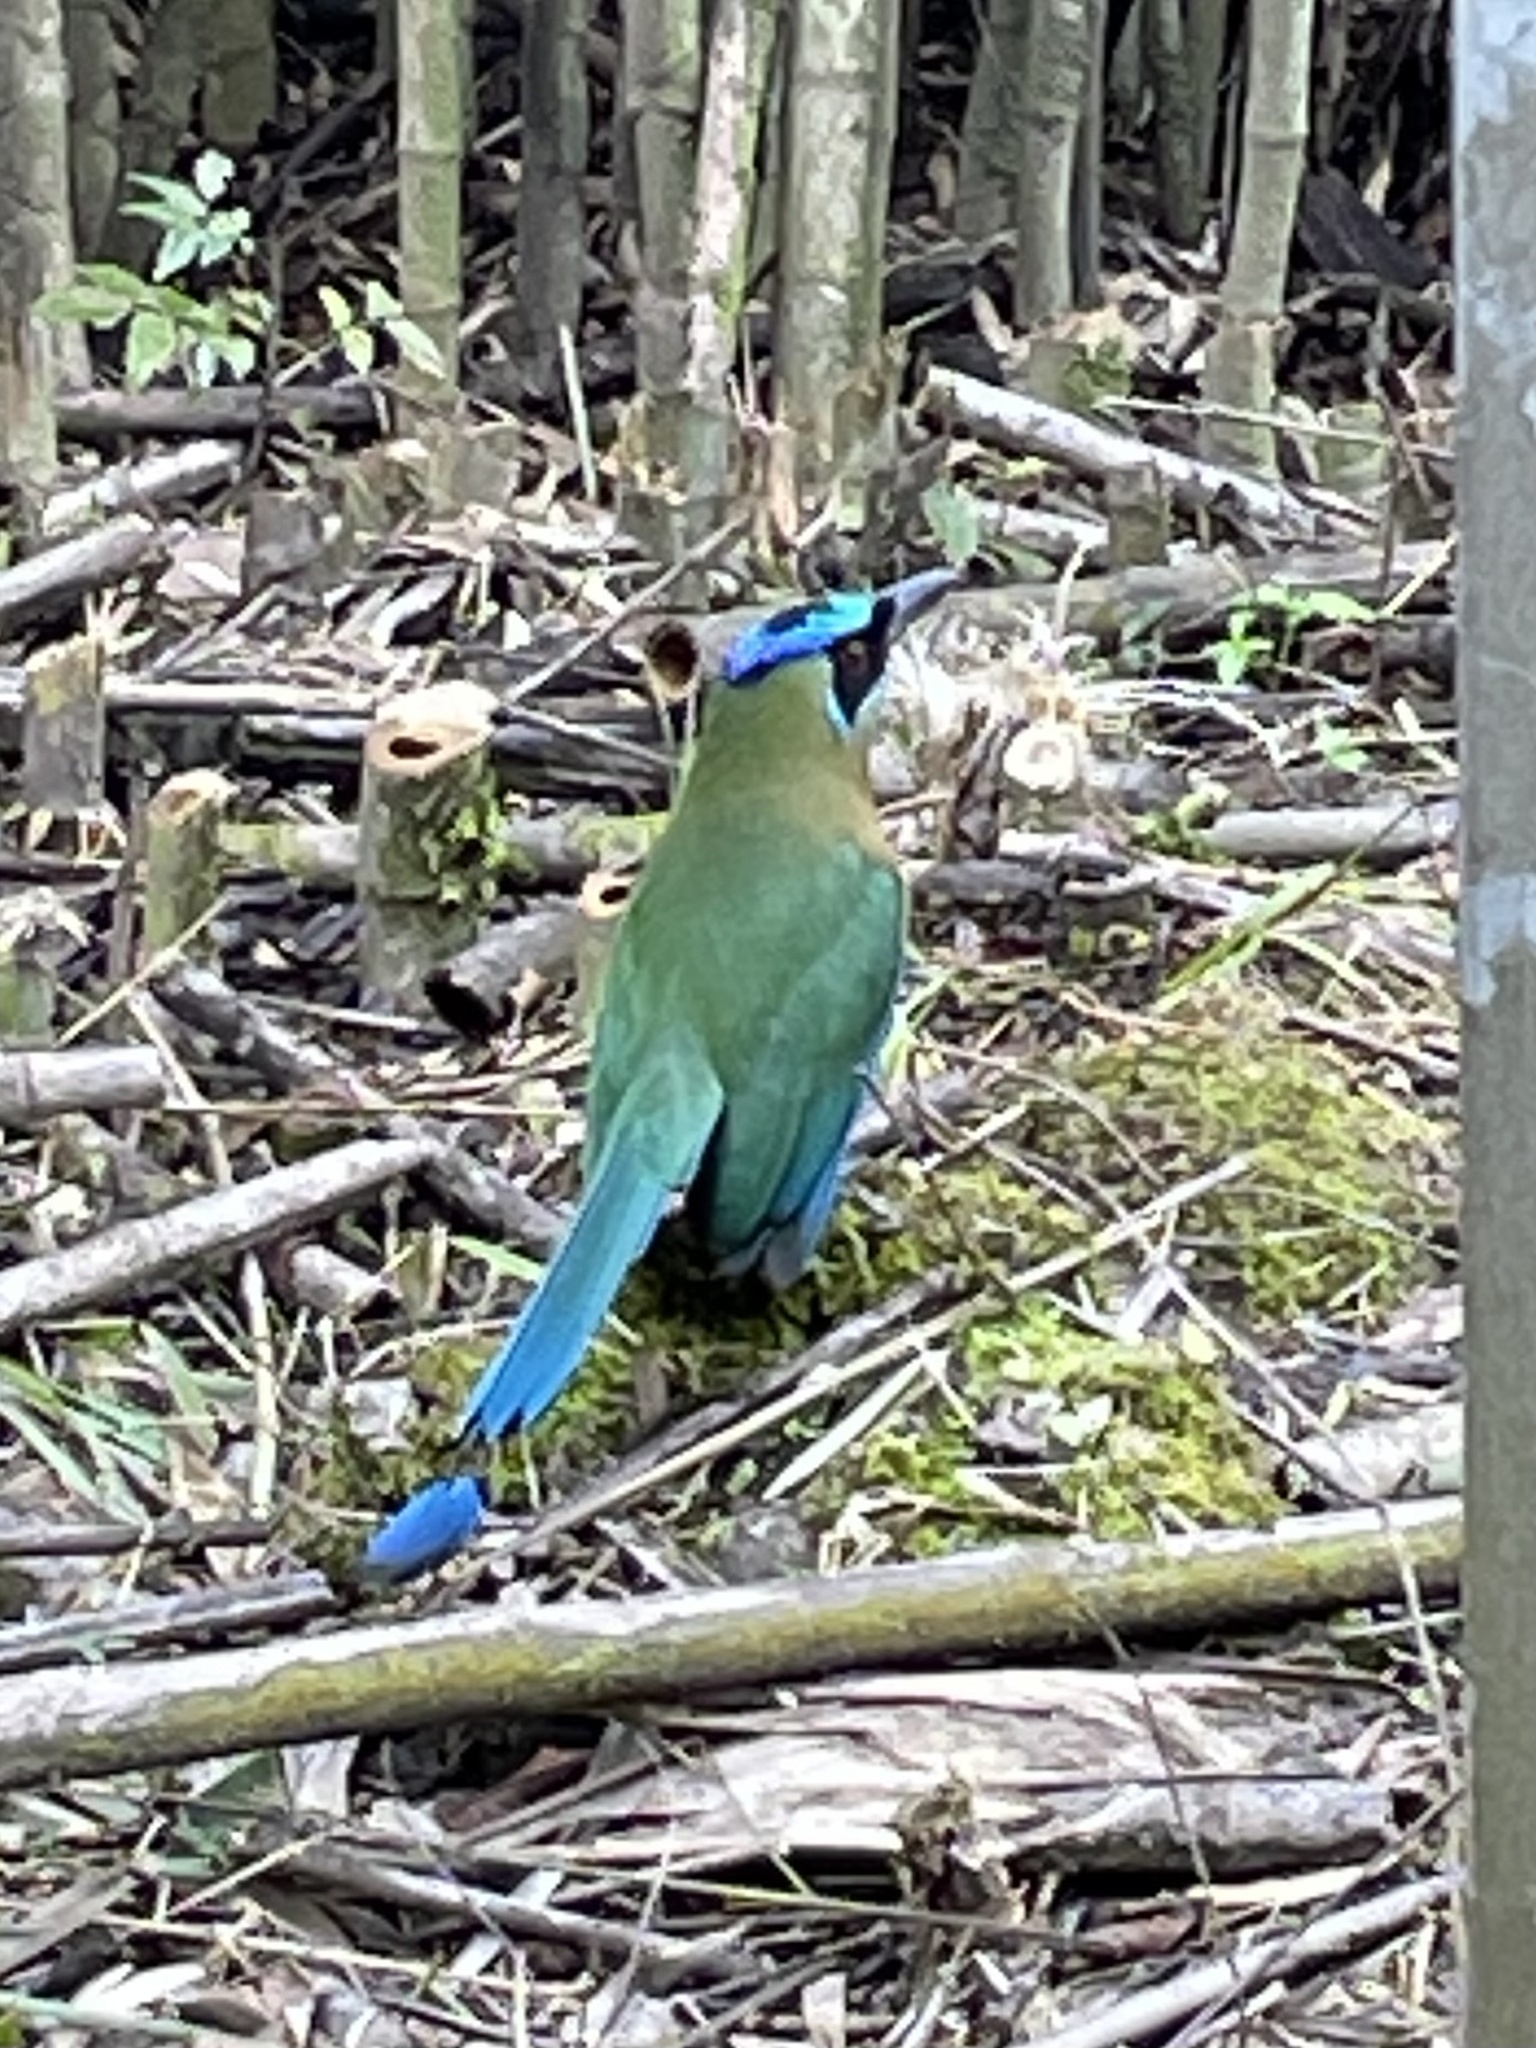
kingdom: Animalia
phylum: Chordata
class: Aves
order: Coraciiformes
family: Momotidae
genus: Momotus
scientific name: Momotus lessonii
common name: Lesson's motmot
